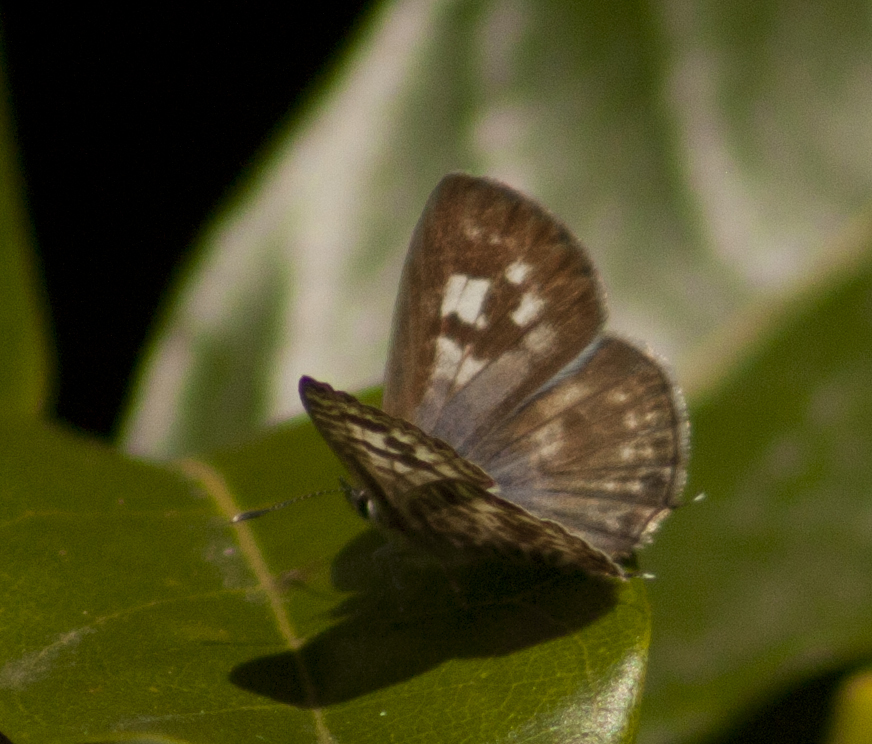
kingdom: Animalia
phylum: Arthropoda
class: Insecta
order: Lepidoptera
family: Lycaenidae
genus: Leptotes
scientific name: Leptotes plinius
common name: Zebra blue
